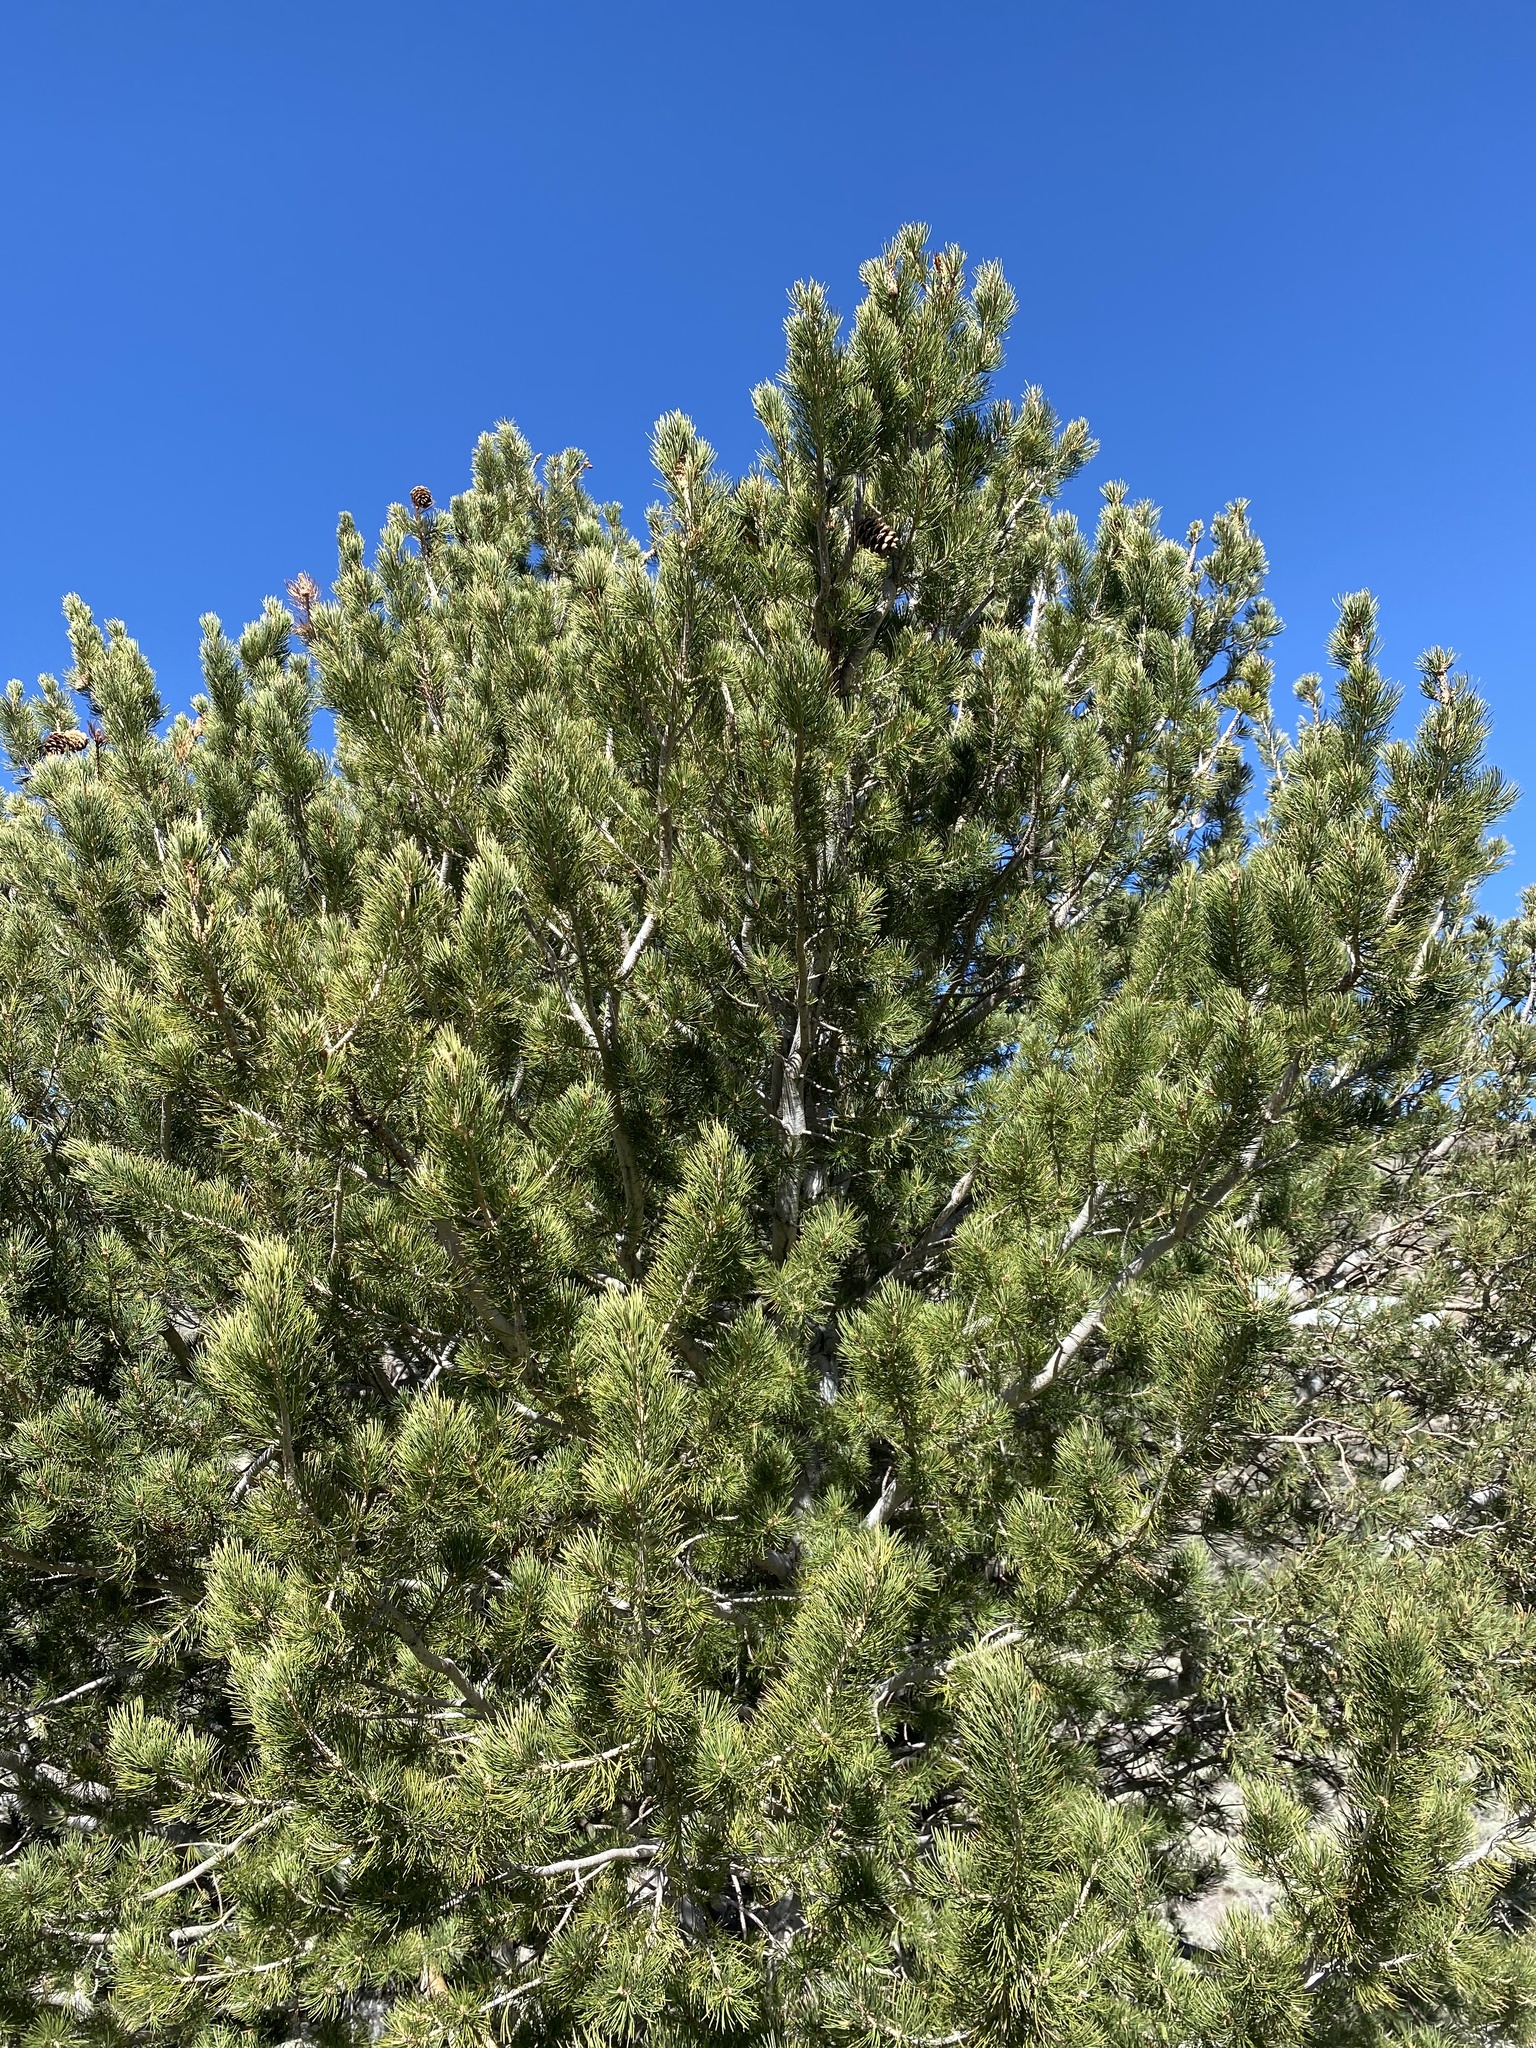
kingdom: Plantae
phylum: Tracheophyta
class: Pinopsida
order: Pinales
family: Pinaceae
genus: Pinus
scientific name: Pinus flexilis
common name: Limber pine
